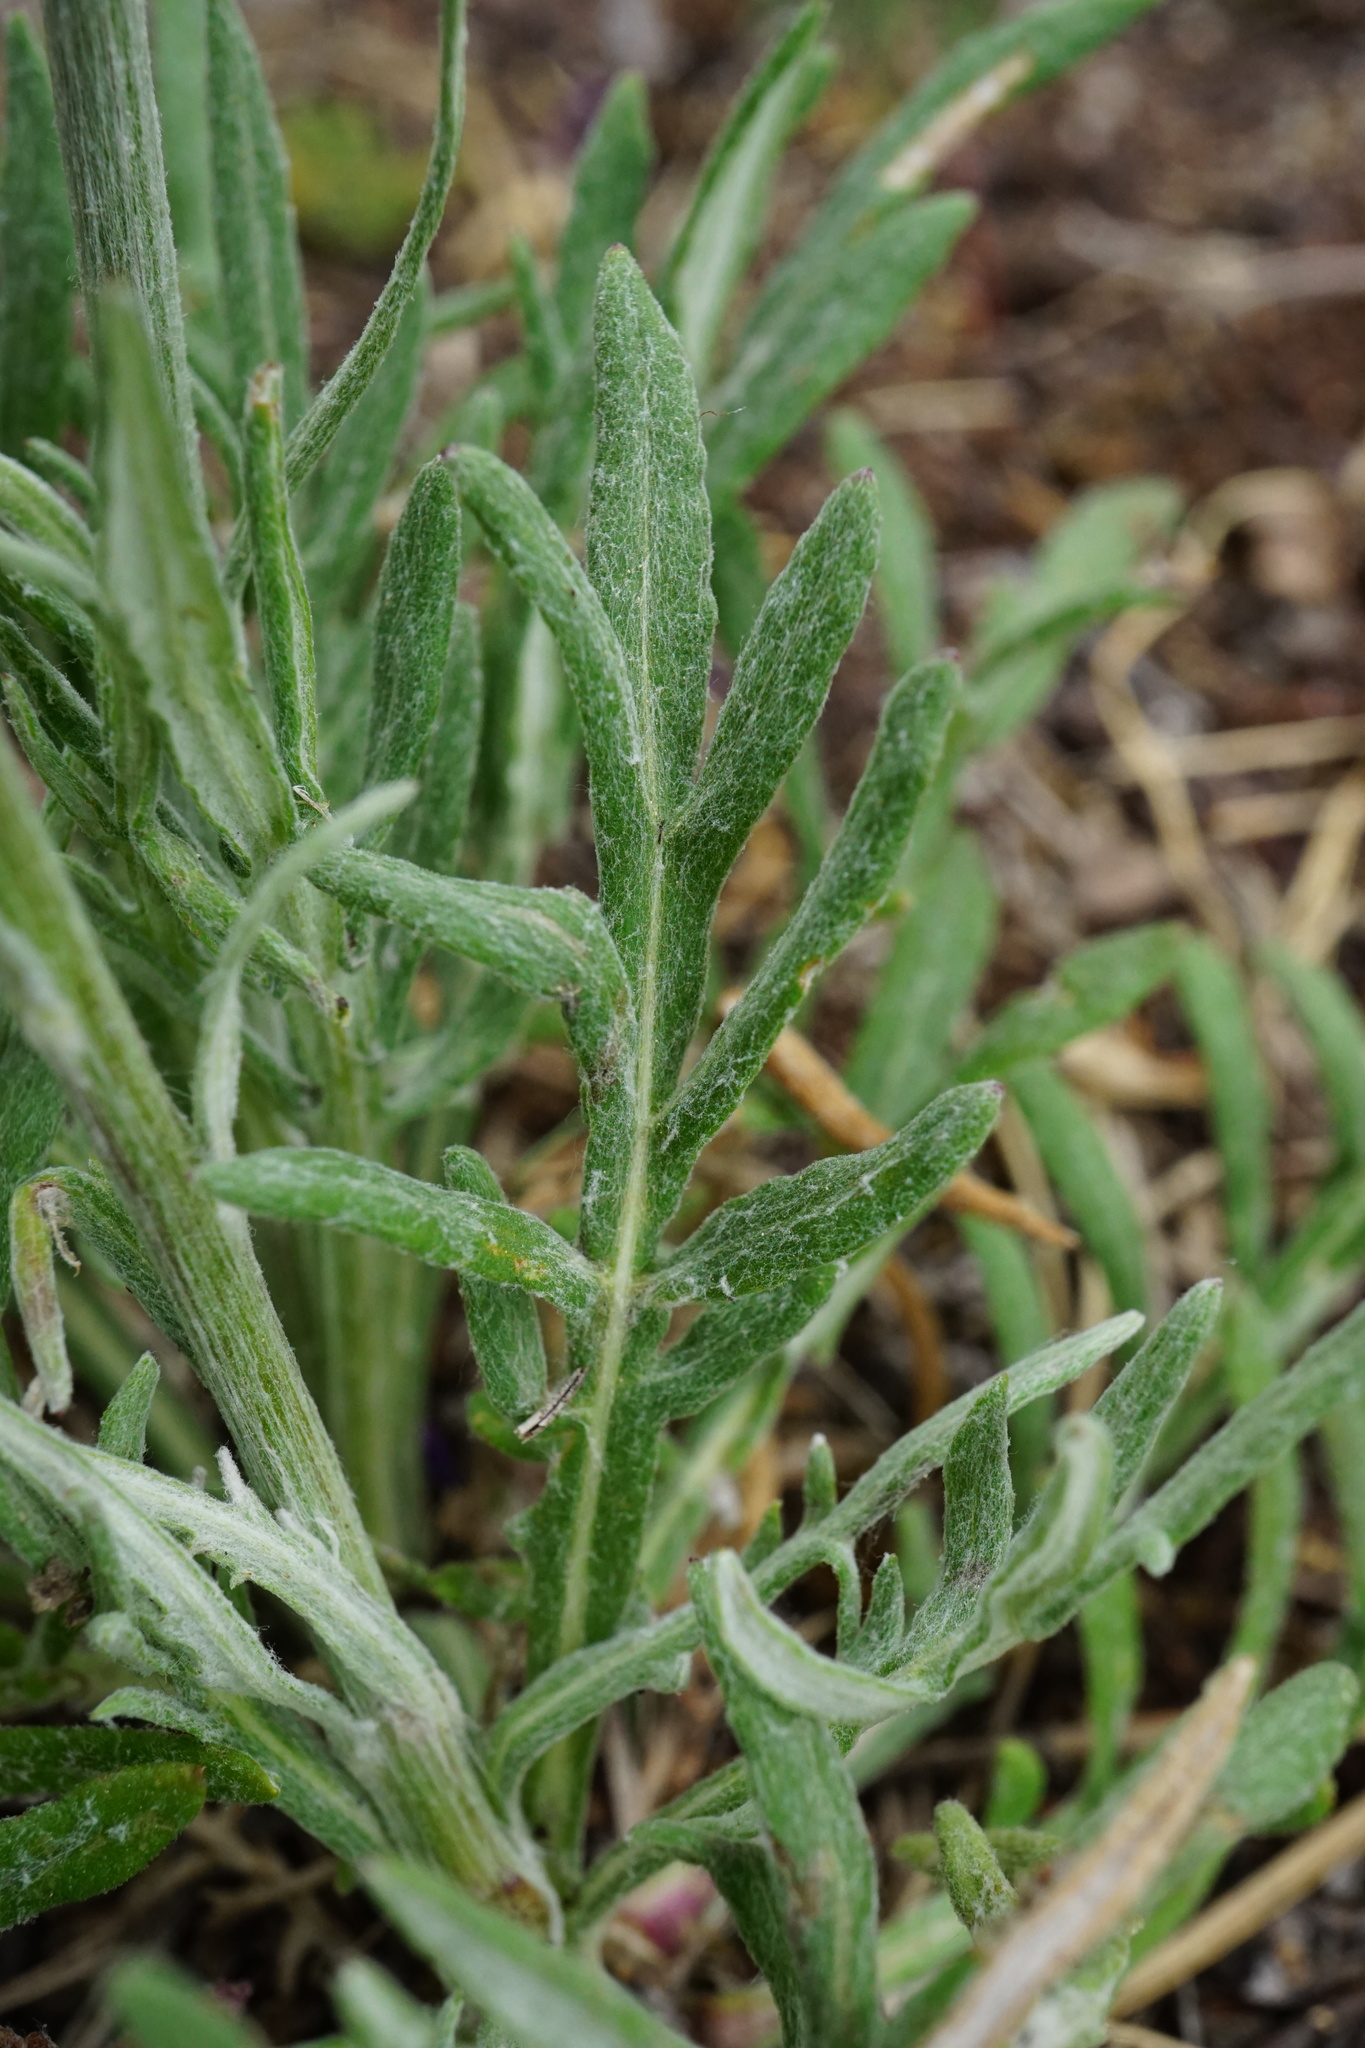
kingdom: Plantae
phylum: Tracheophyta
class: Magnoliopsida
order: Asterales
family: Asteraceae
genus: Jurinea
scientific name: Jurinea mollis
